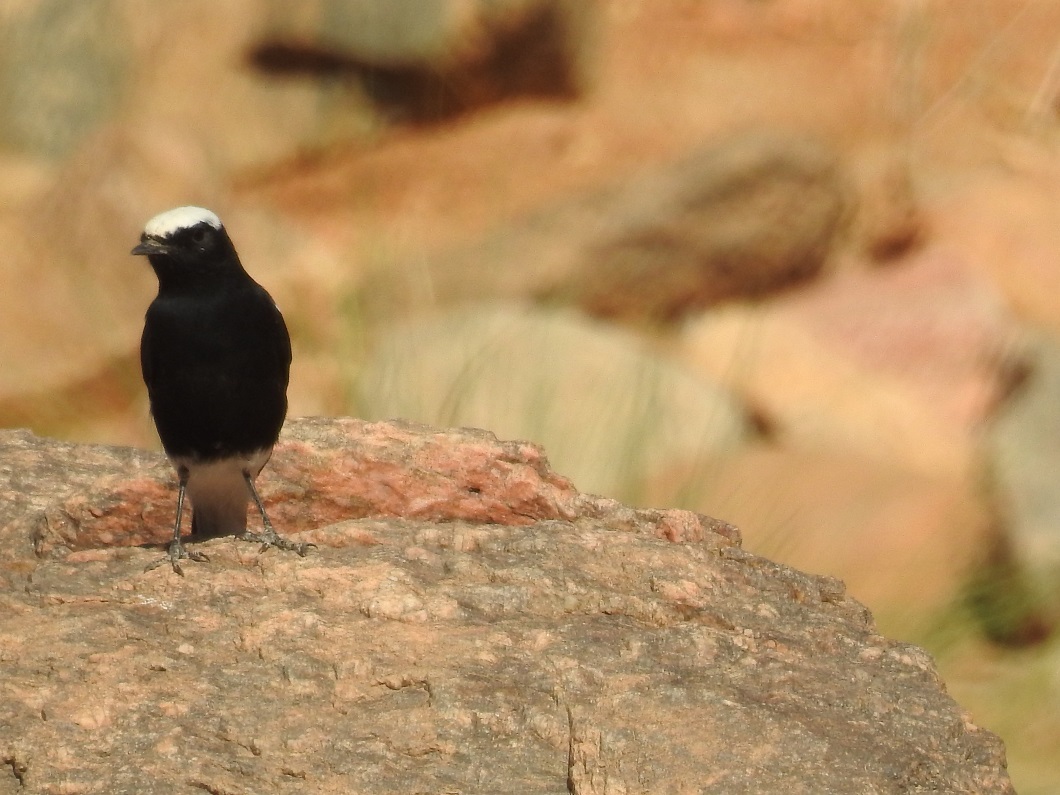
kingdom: Animalia
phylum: Chordata
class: Aves
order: Passeriformes
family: Muscicapidae
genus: Oenanthe
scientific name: Oenanthe leucopyga
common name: White-crowned wheatear
